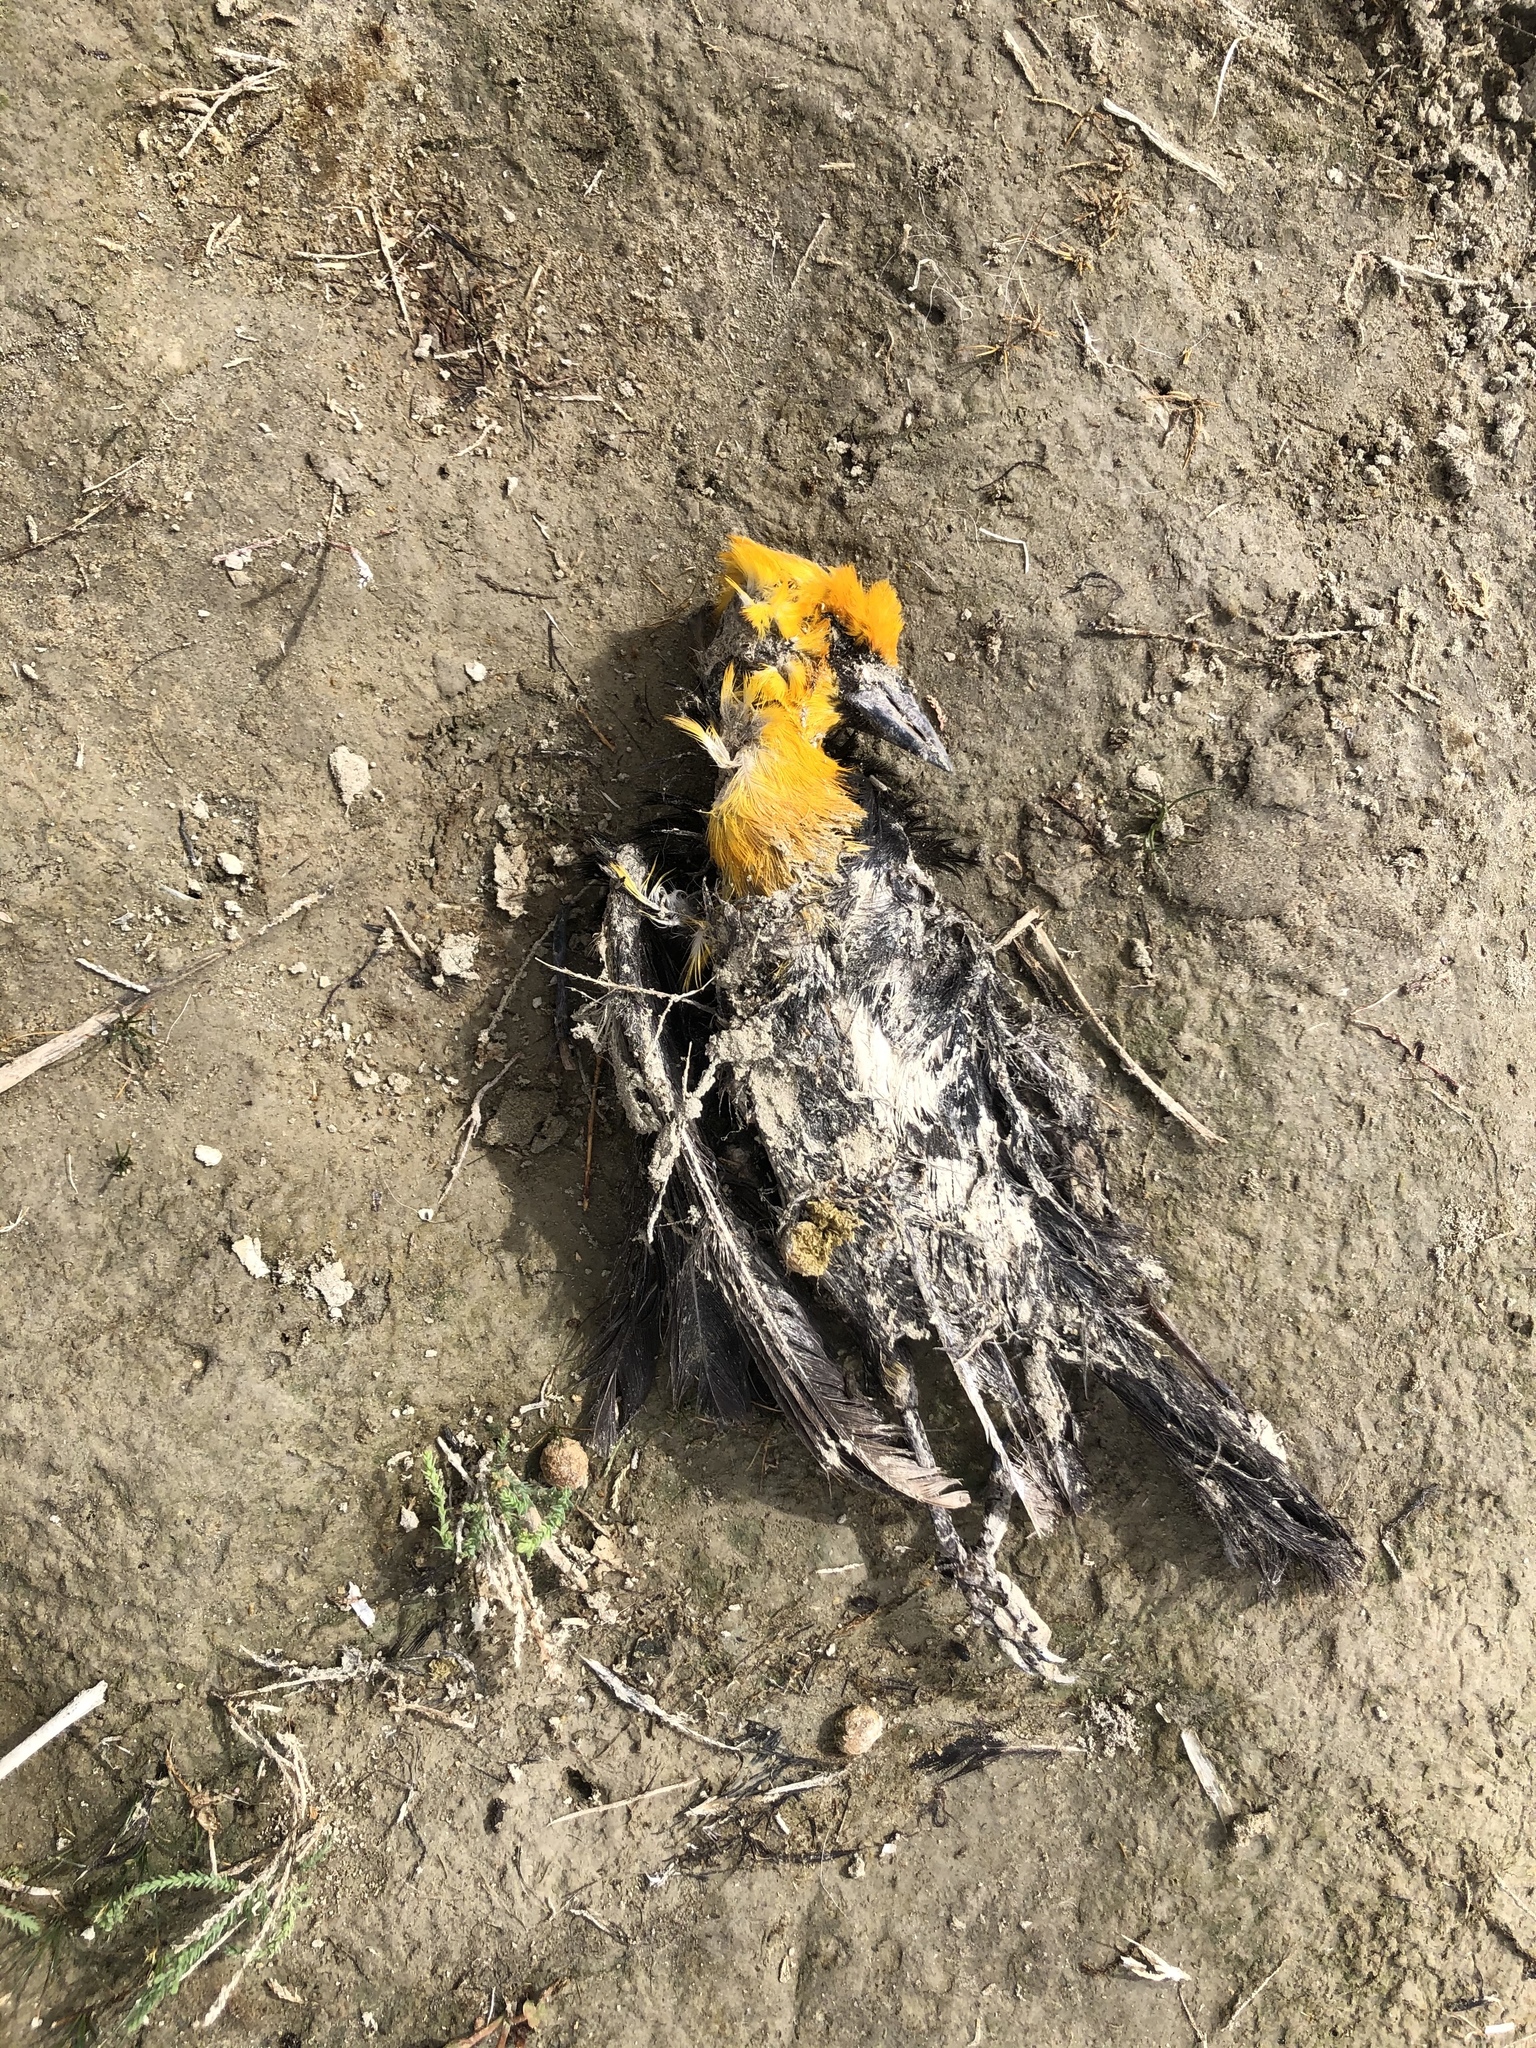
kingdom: Animalia
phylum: Chordata
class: Aves
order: Passeriformes
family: Icteridae
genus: Xanthocephalus
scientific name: Xanthocephalus xanthocephalus
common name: Yellow-headed blackbird
